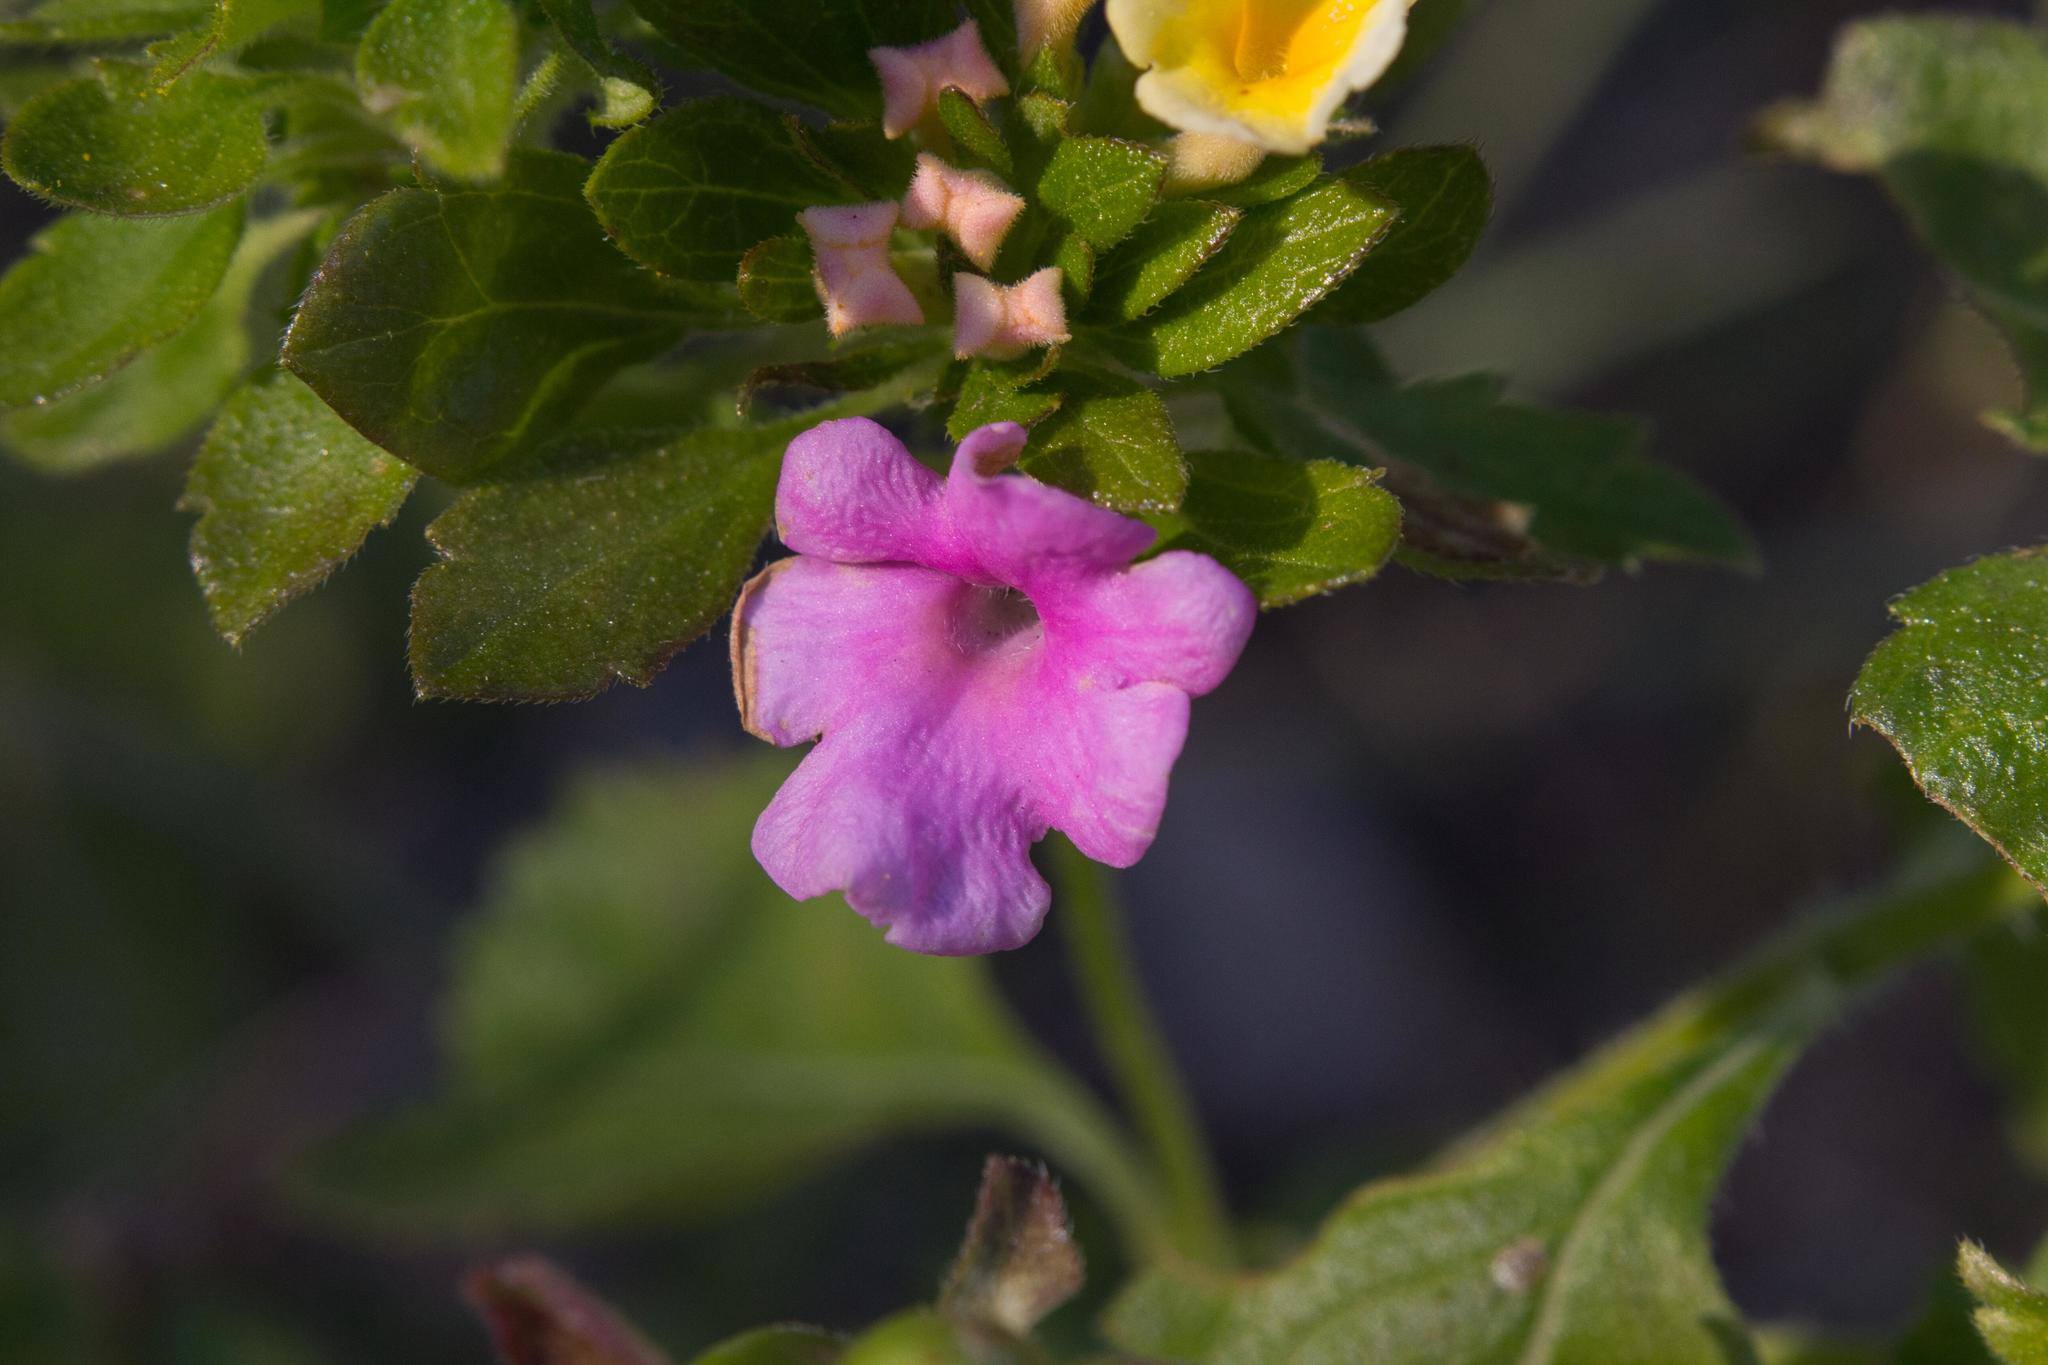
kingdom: Plantae
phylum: Tracheophyta
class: Magnoliopsida
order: Lamiales
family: Verbenaceae
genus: Lantana
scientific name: Lantana strigocamara
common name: Lantana
